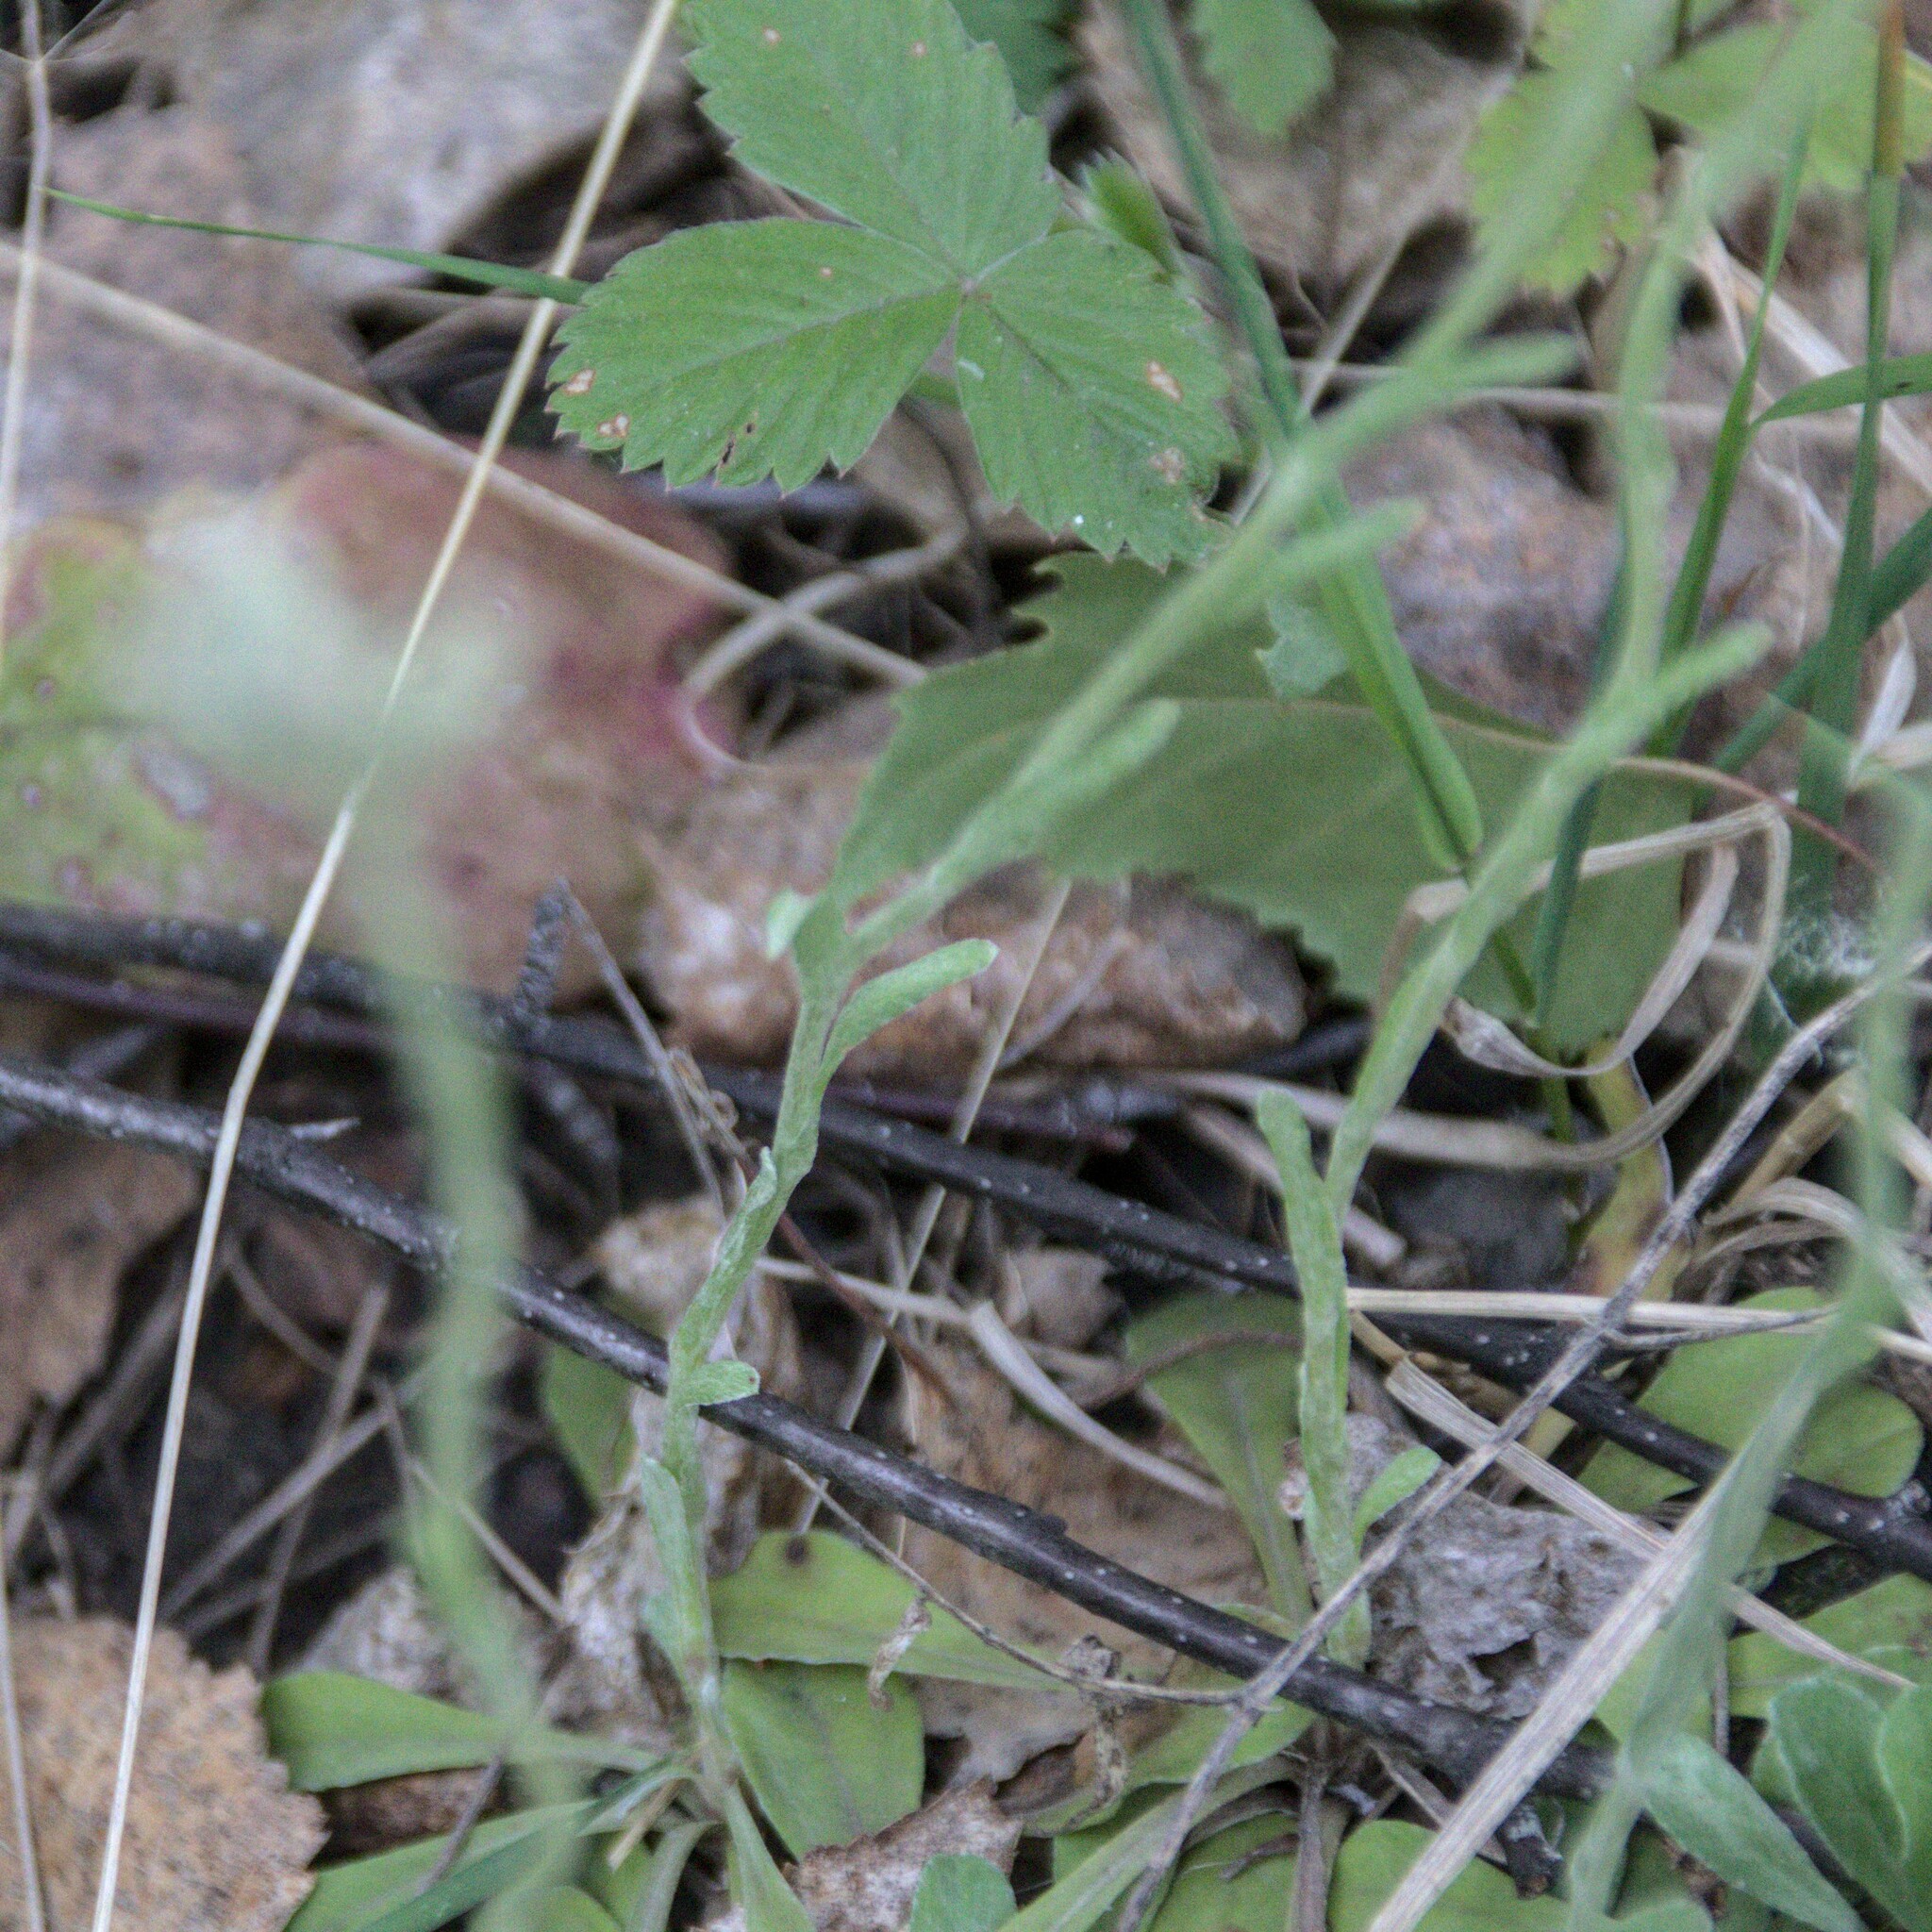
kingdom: Plantae
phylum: Tracheophyta
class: Magnoliopsida
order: Asterales
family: Asteraceae
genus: Antennaria
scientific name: Antennaria dioica
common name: Mountain everlasting
